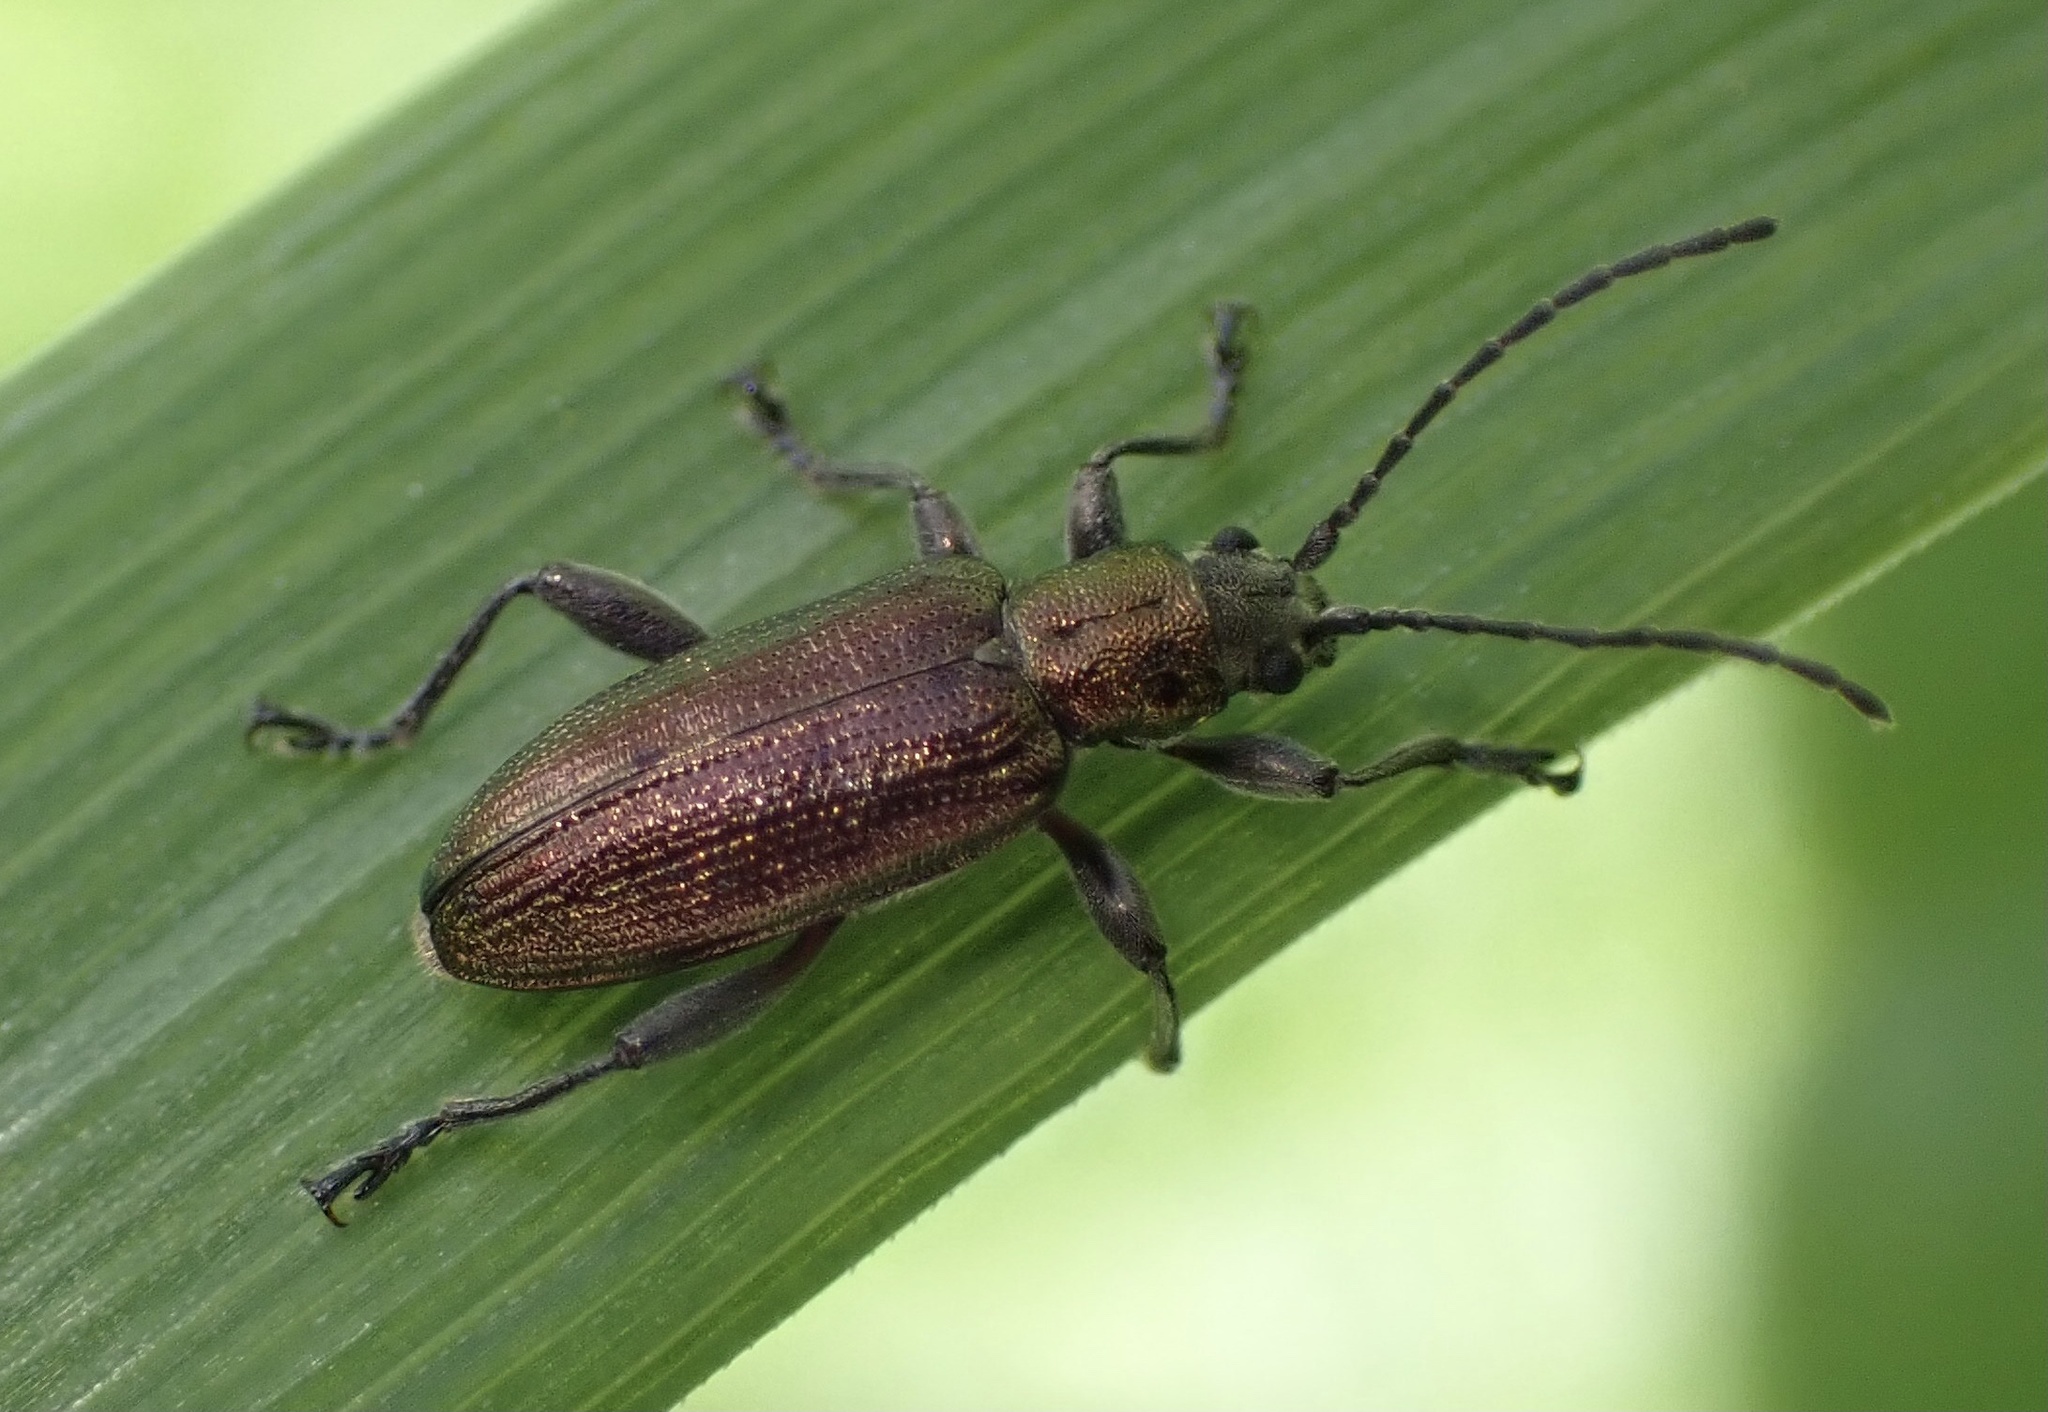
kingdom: Animalia
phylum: Arthropoda
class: Insecta
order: Coleoptera
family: Chrysomelidae
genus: Donacia
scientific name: Donacia semicuprea
